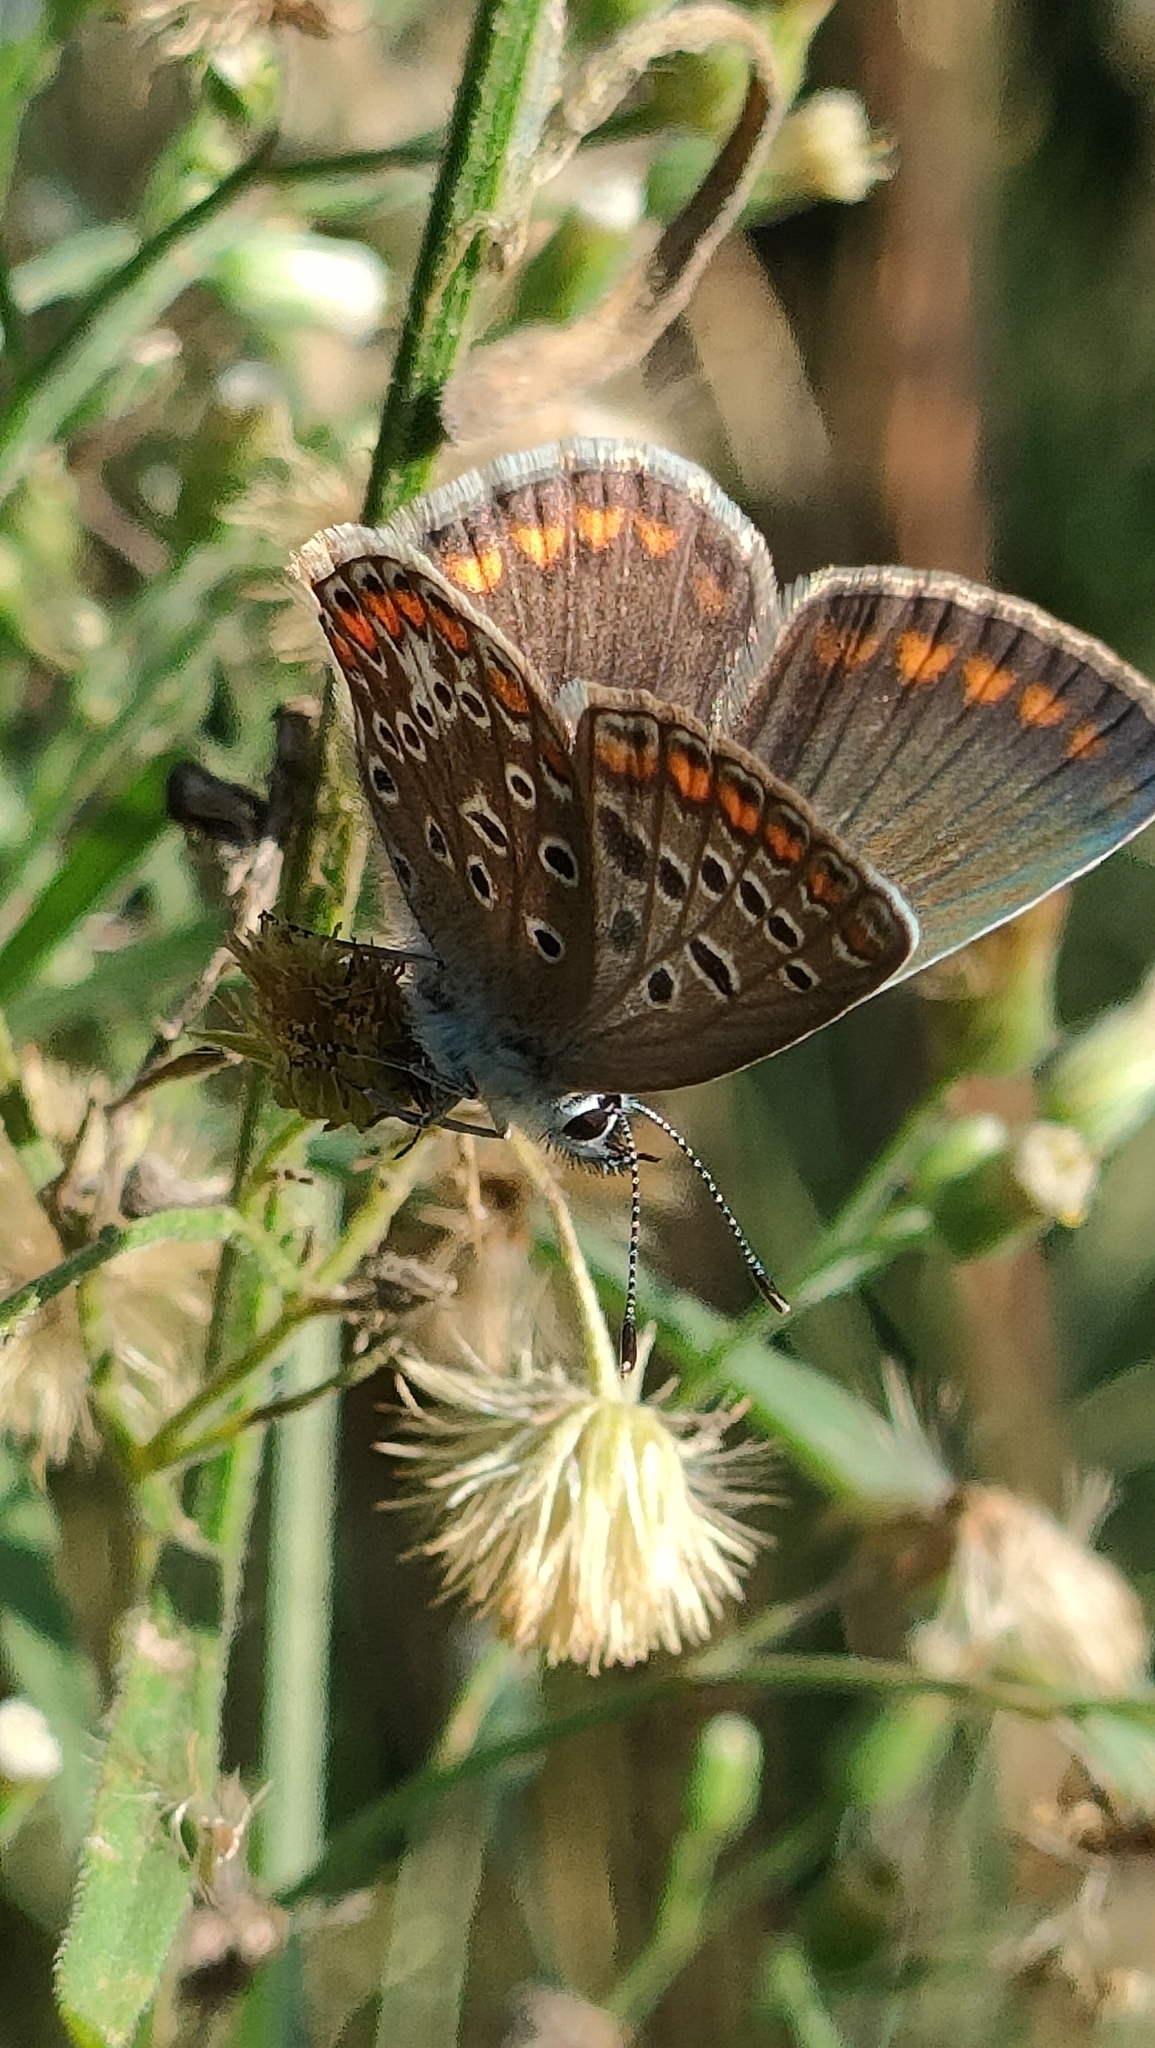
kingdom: Animalia
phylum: Arthropoda
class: Insecta
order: Lepidoptera
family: Lycaenidae
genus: Polyommatus
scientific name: Polyommatus icarus
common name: Common blue
